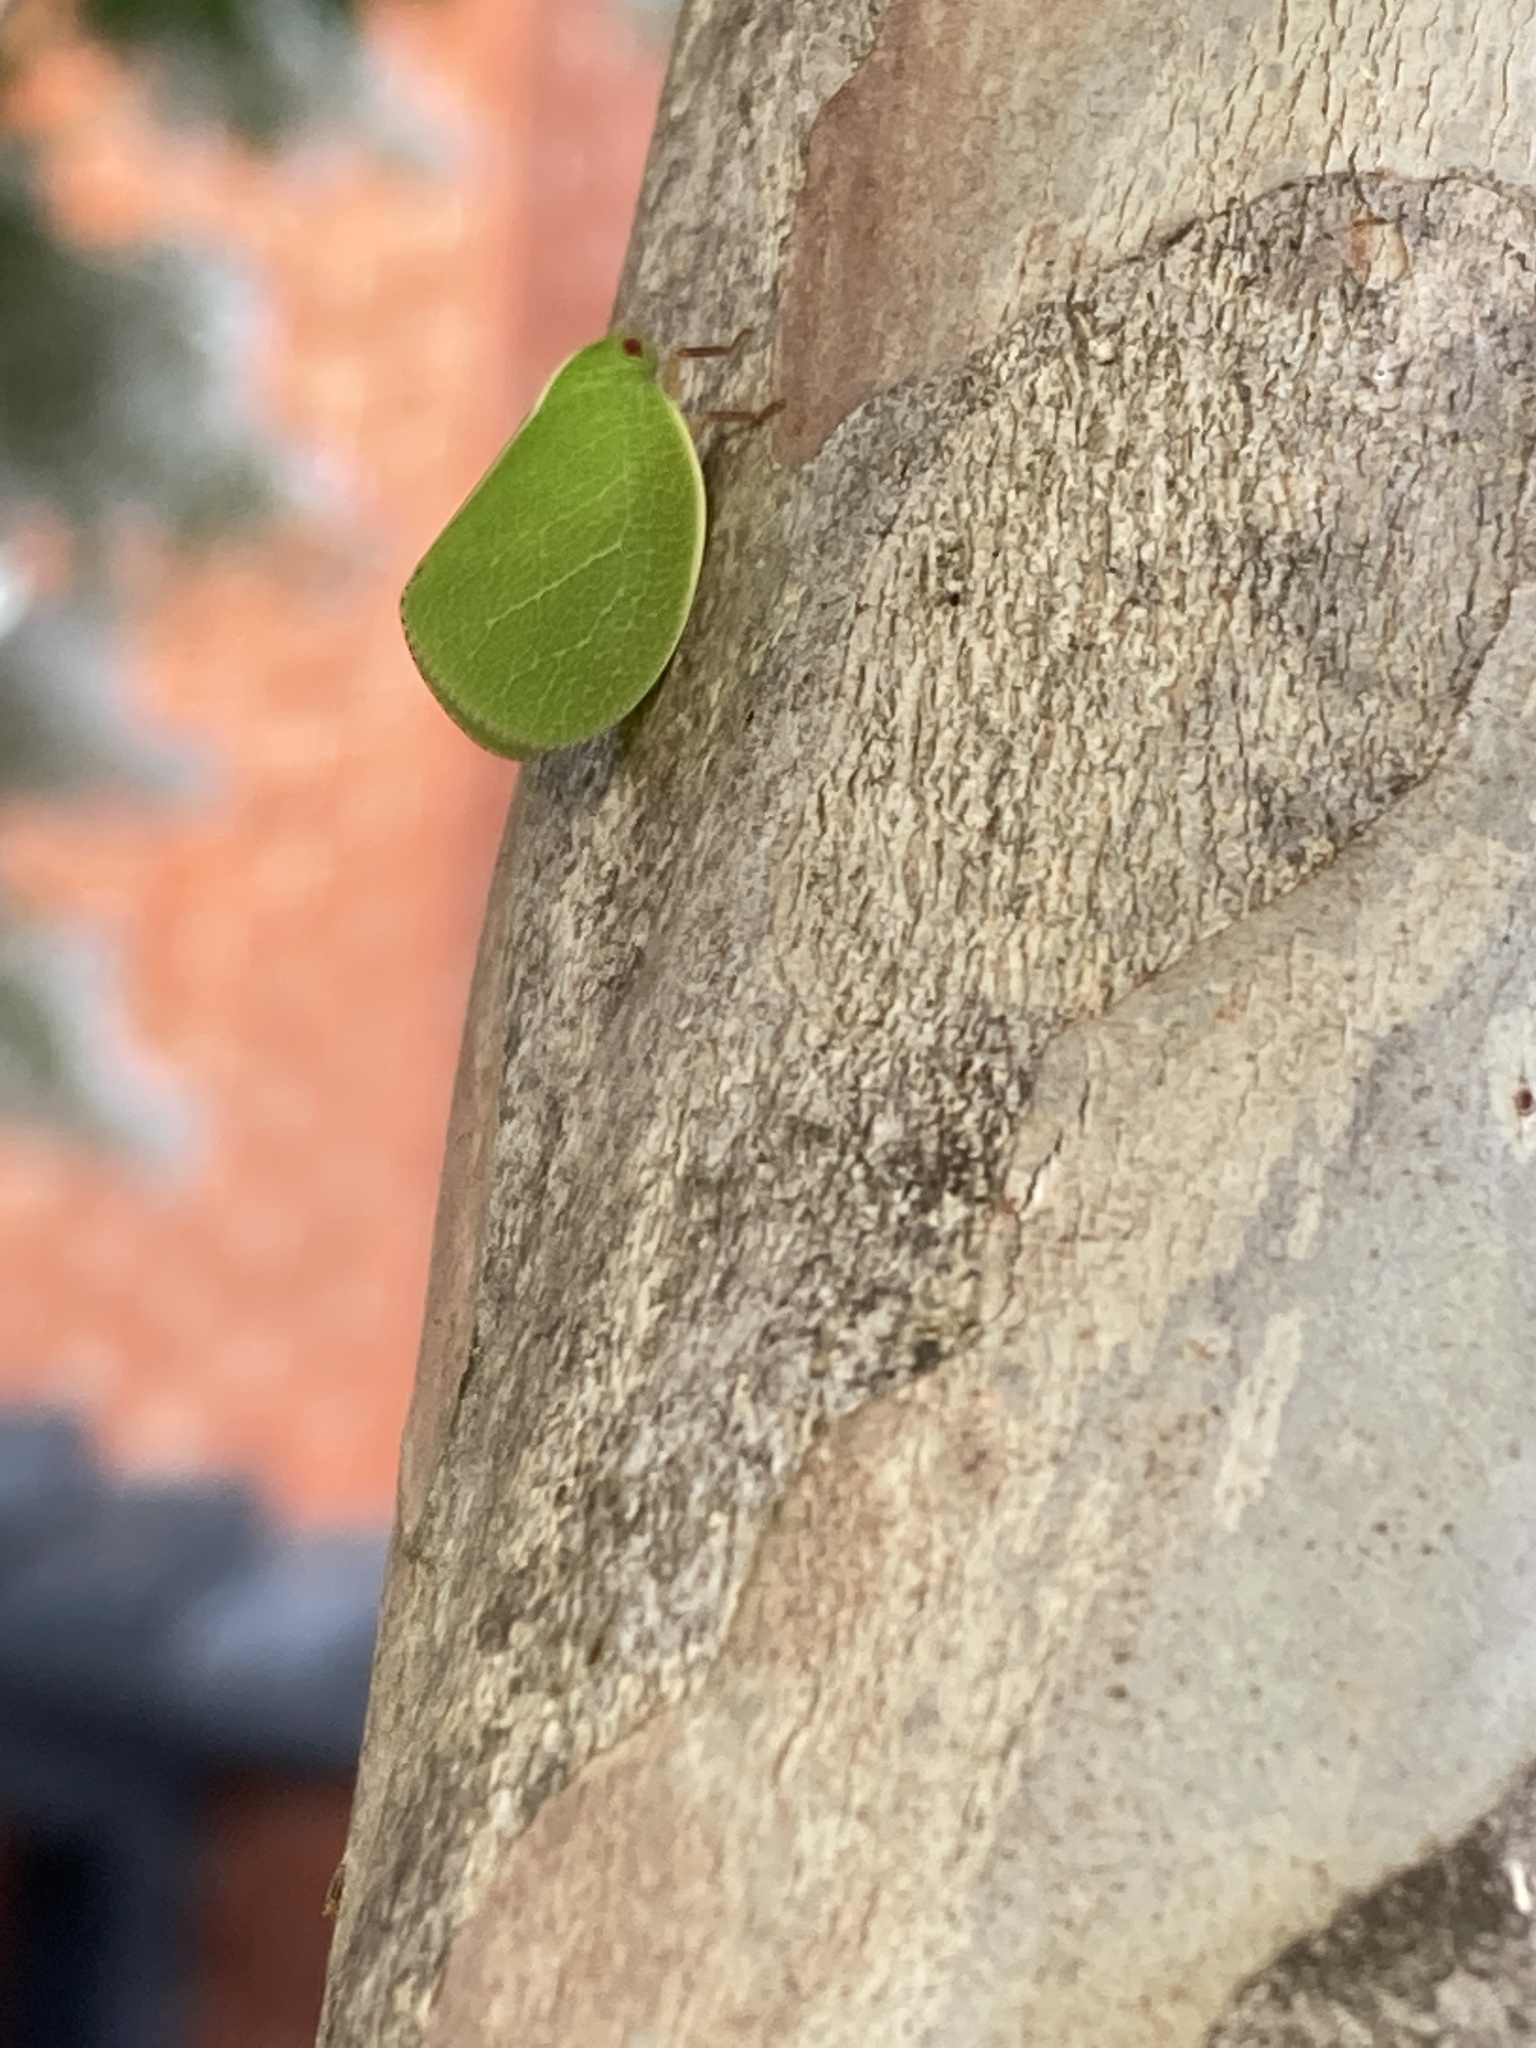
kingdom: Animalia
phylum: Arthropoda
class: Insecta
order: Hemiptera
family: Acanaloniidae
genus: Acanalonia
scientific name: Acanalonia servillei
